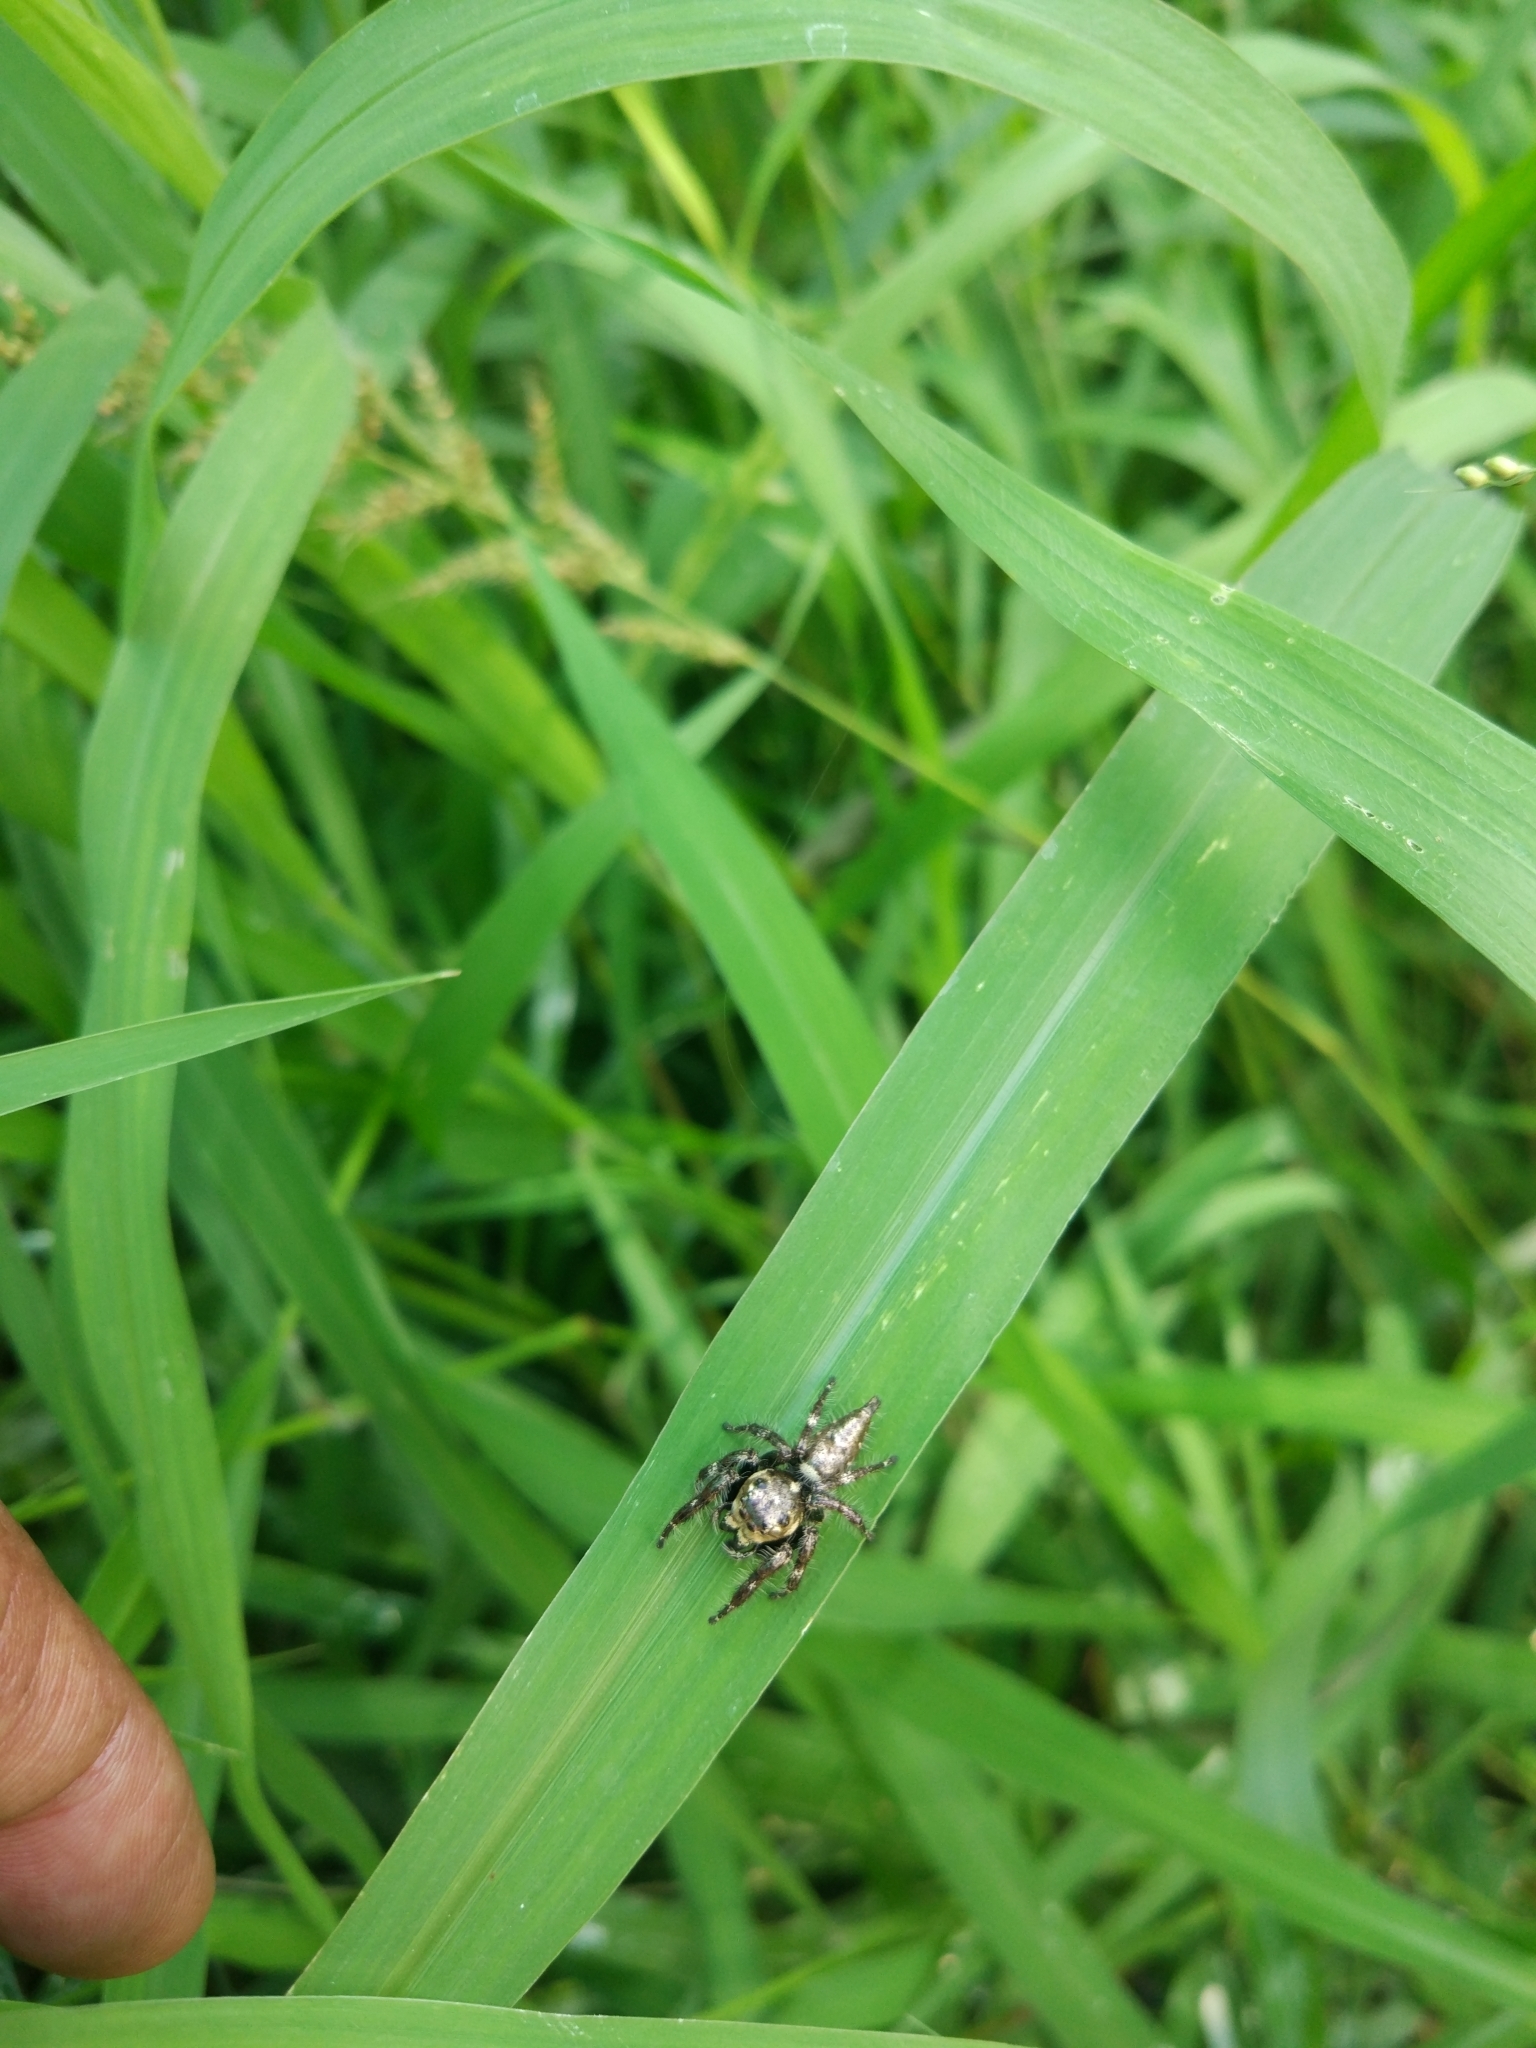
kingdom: Animalia
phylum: Arthropoda
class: Arachnida
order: Araneae
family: Salticidae
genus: Hyllus
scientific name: Hyllus semicupreus
